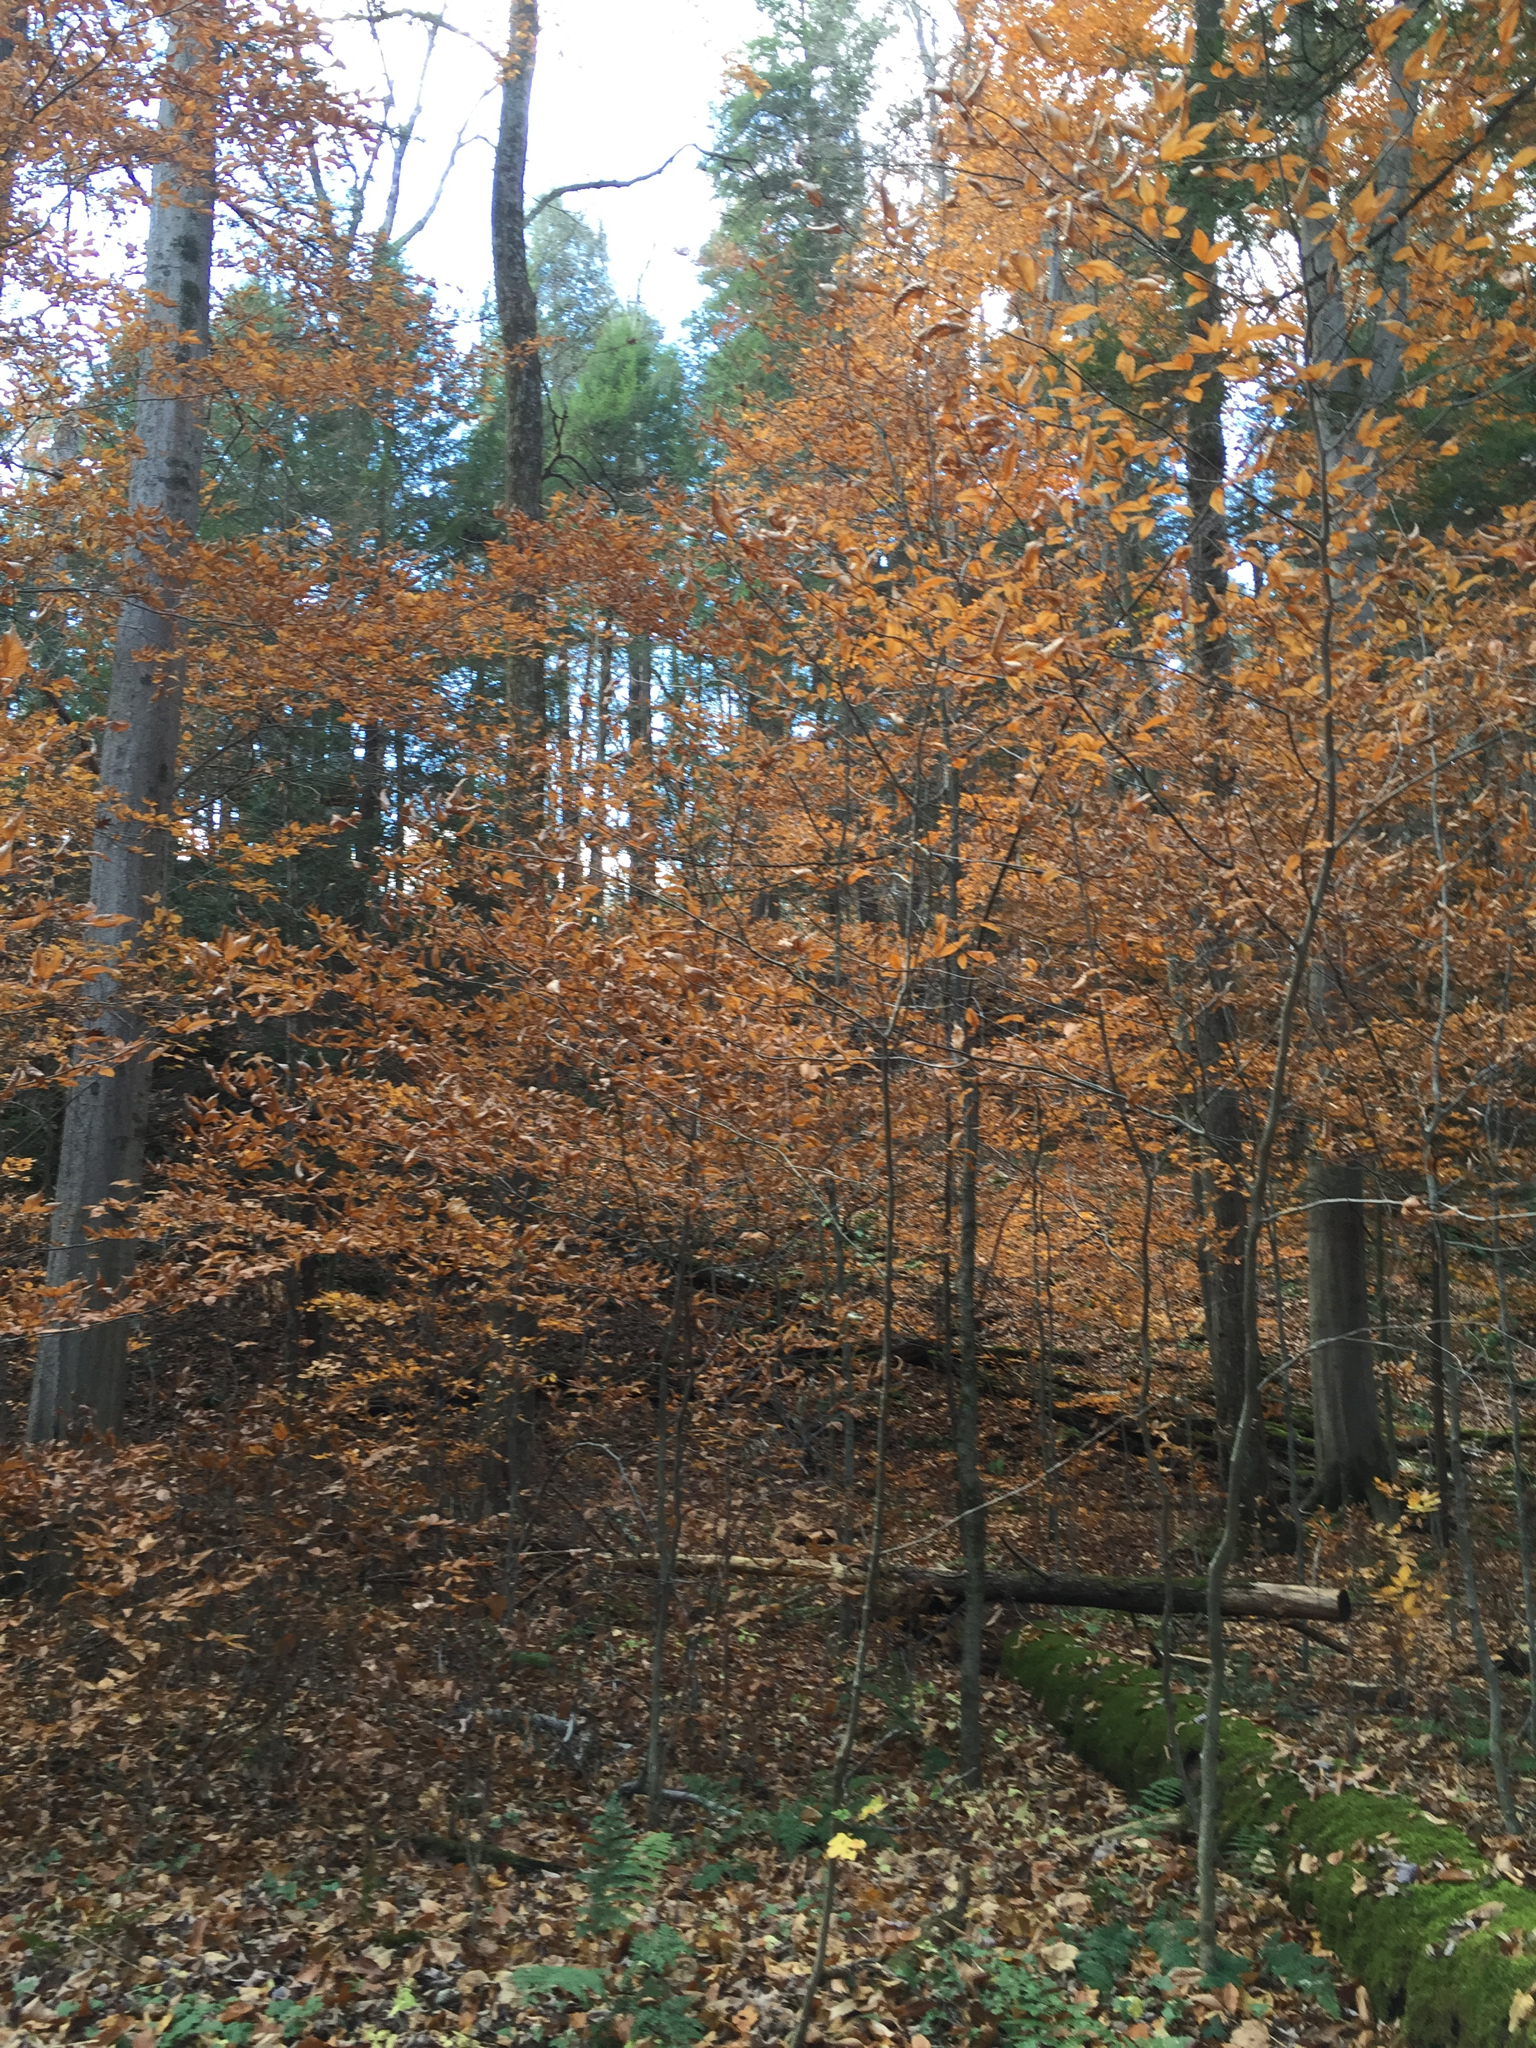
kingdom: Plantae
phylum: Tracheophyta
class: Magnoliopsida
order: Fagales
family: Fagaceae
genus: Fagus
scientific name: Fagus grandifolia
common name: American beech
